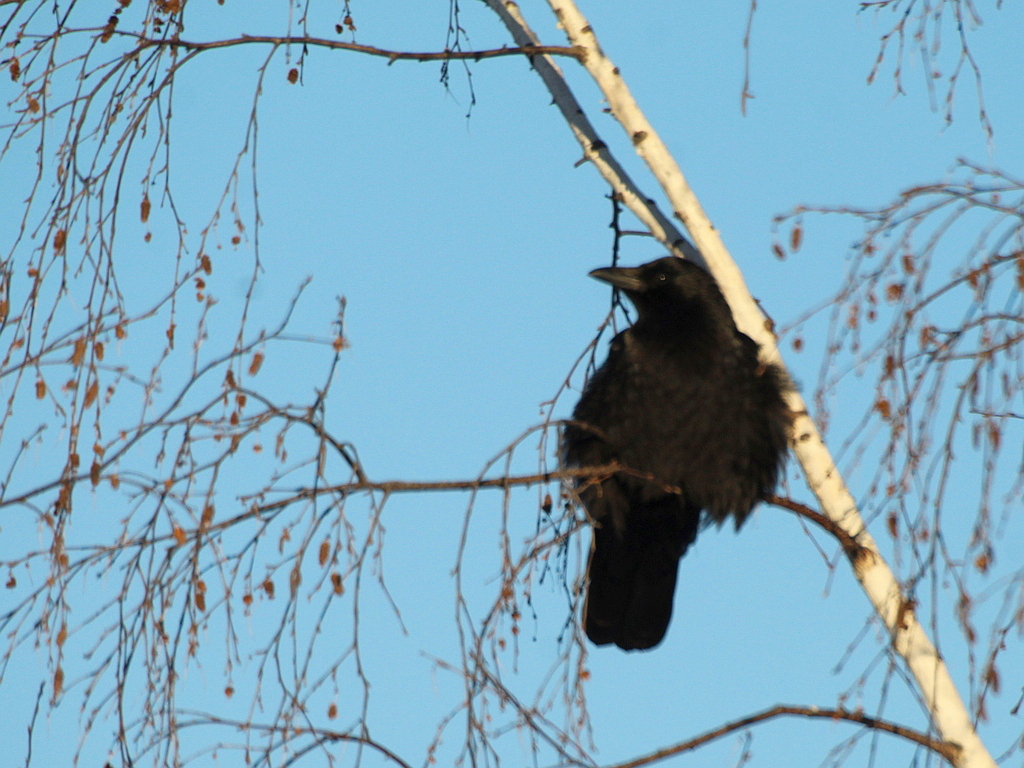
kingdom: Animalia
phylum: Chordata
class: Aves
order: Passeriformes
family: Corvidae
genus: Corvus
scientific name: Corvus corone
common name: Carrion crow
